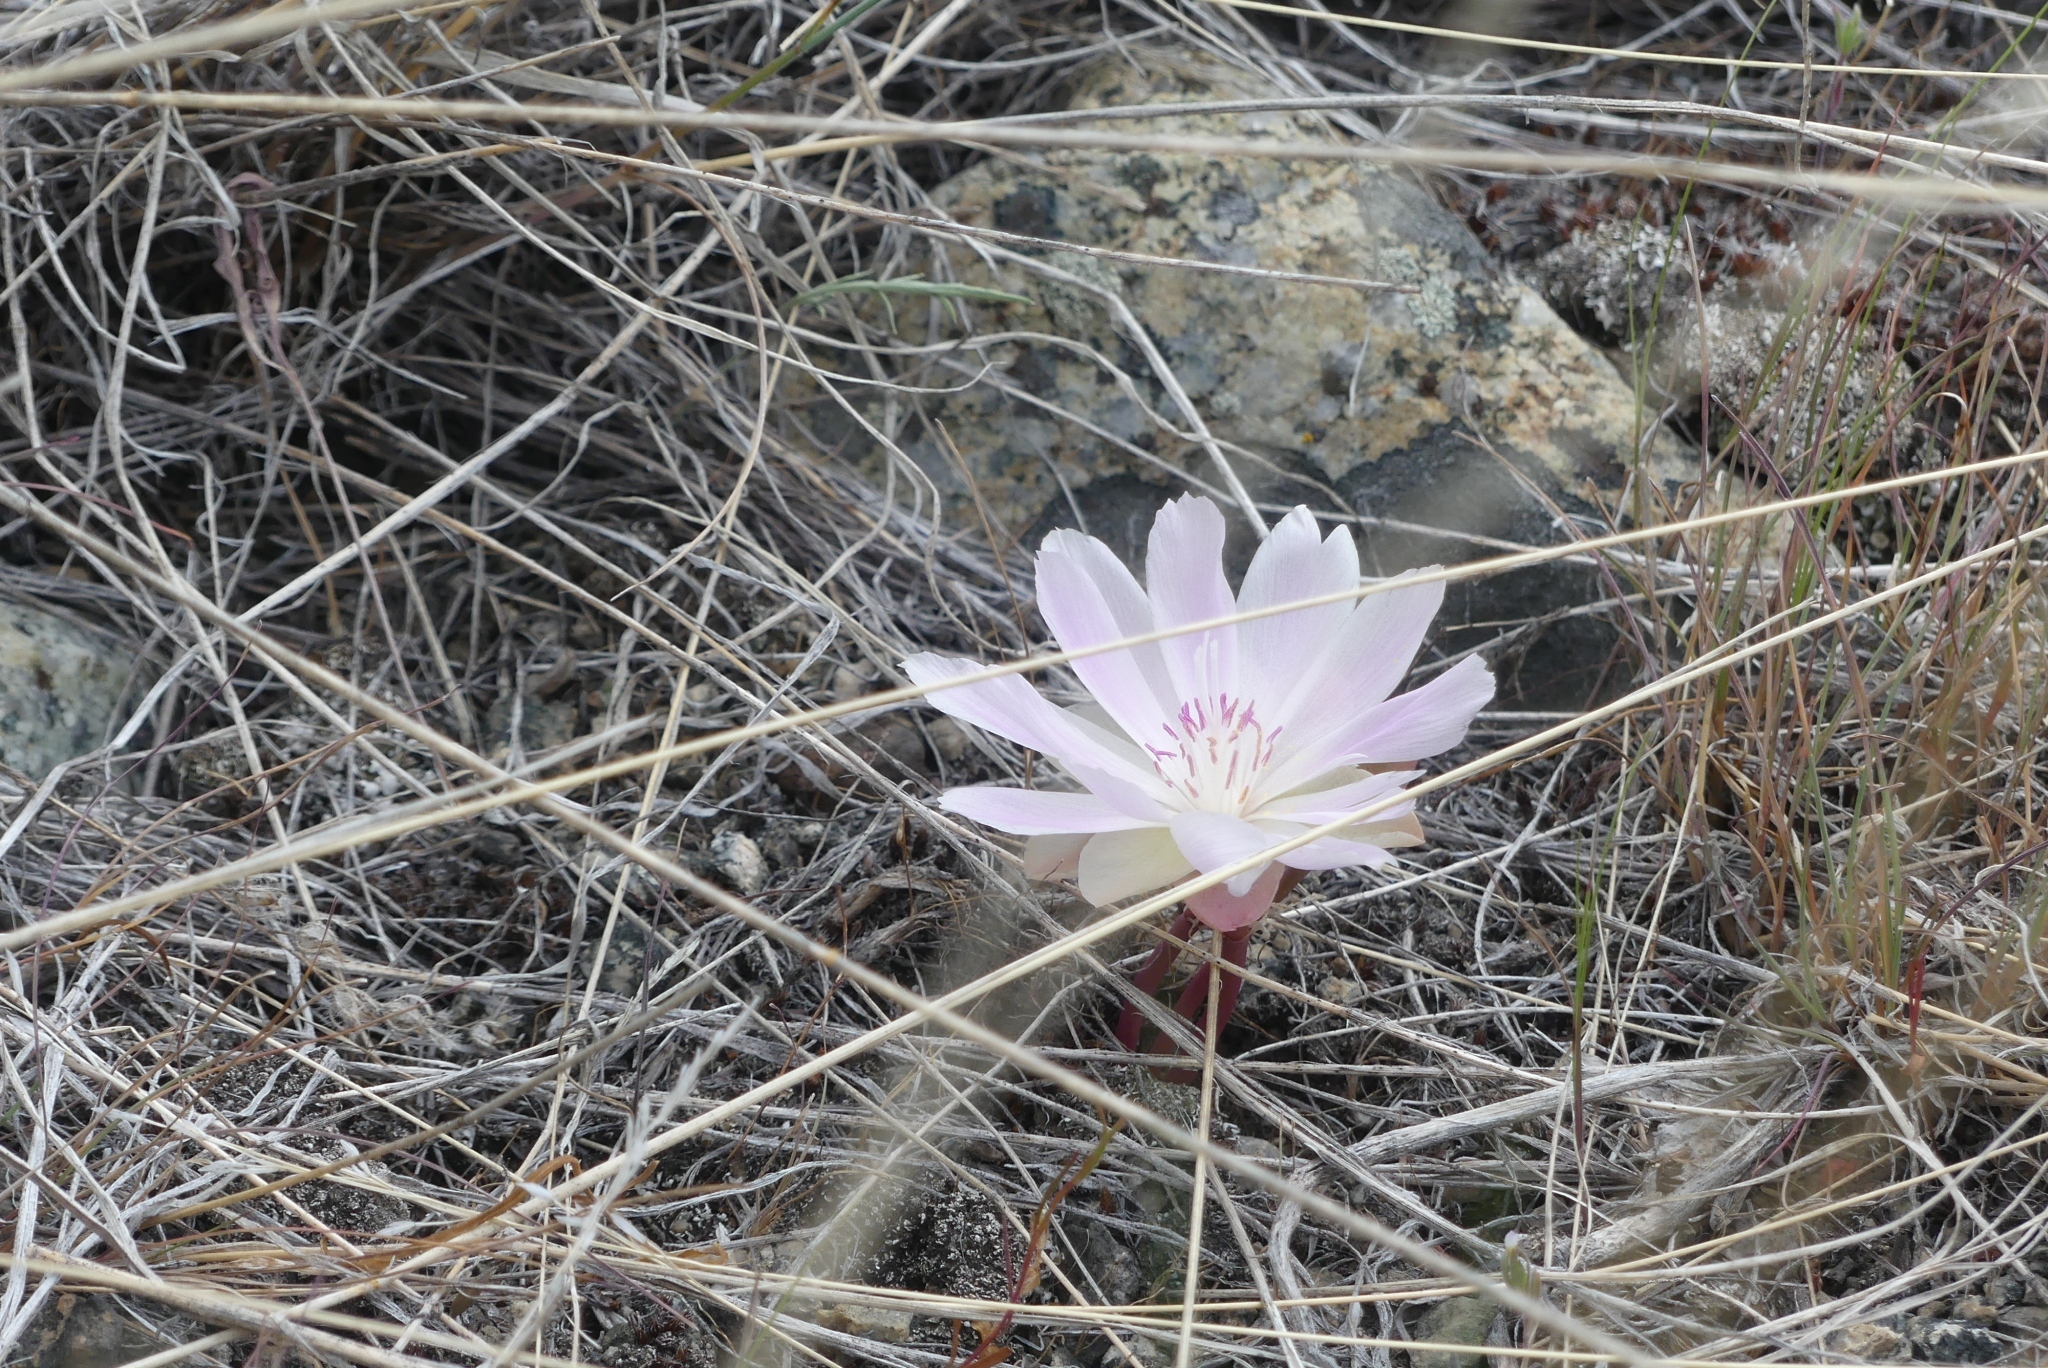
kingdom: Plantae
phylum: Tracheophyta
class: Magnoliopsida
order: Caryophyllales
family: Montiaceae
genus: Lewisia
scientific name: Lewisia rediviva
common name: Bitter-root
